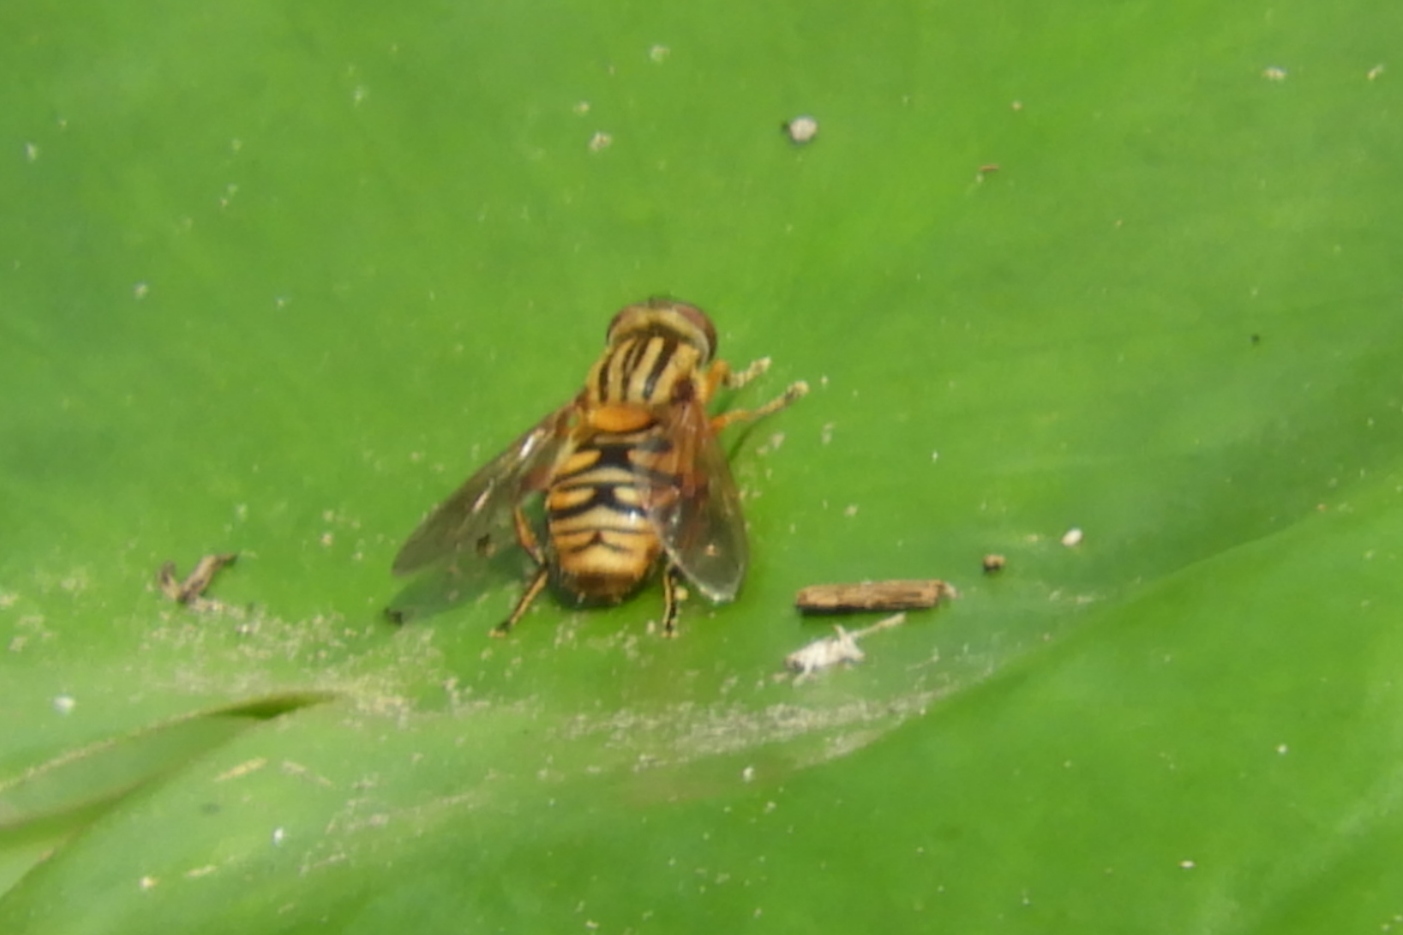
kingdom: Animalia
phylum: Arthropoda
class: Insecta
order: Diptera
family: Syrphidae
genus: Parhelophilus
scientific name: Parhelophilus divisus
